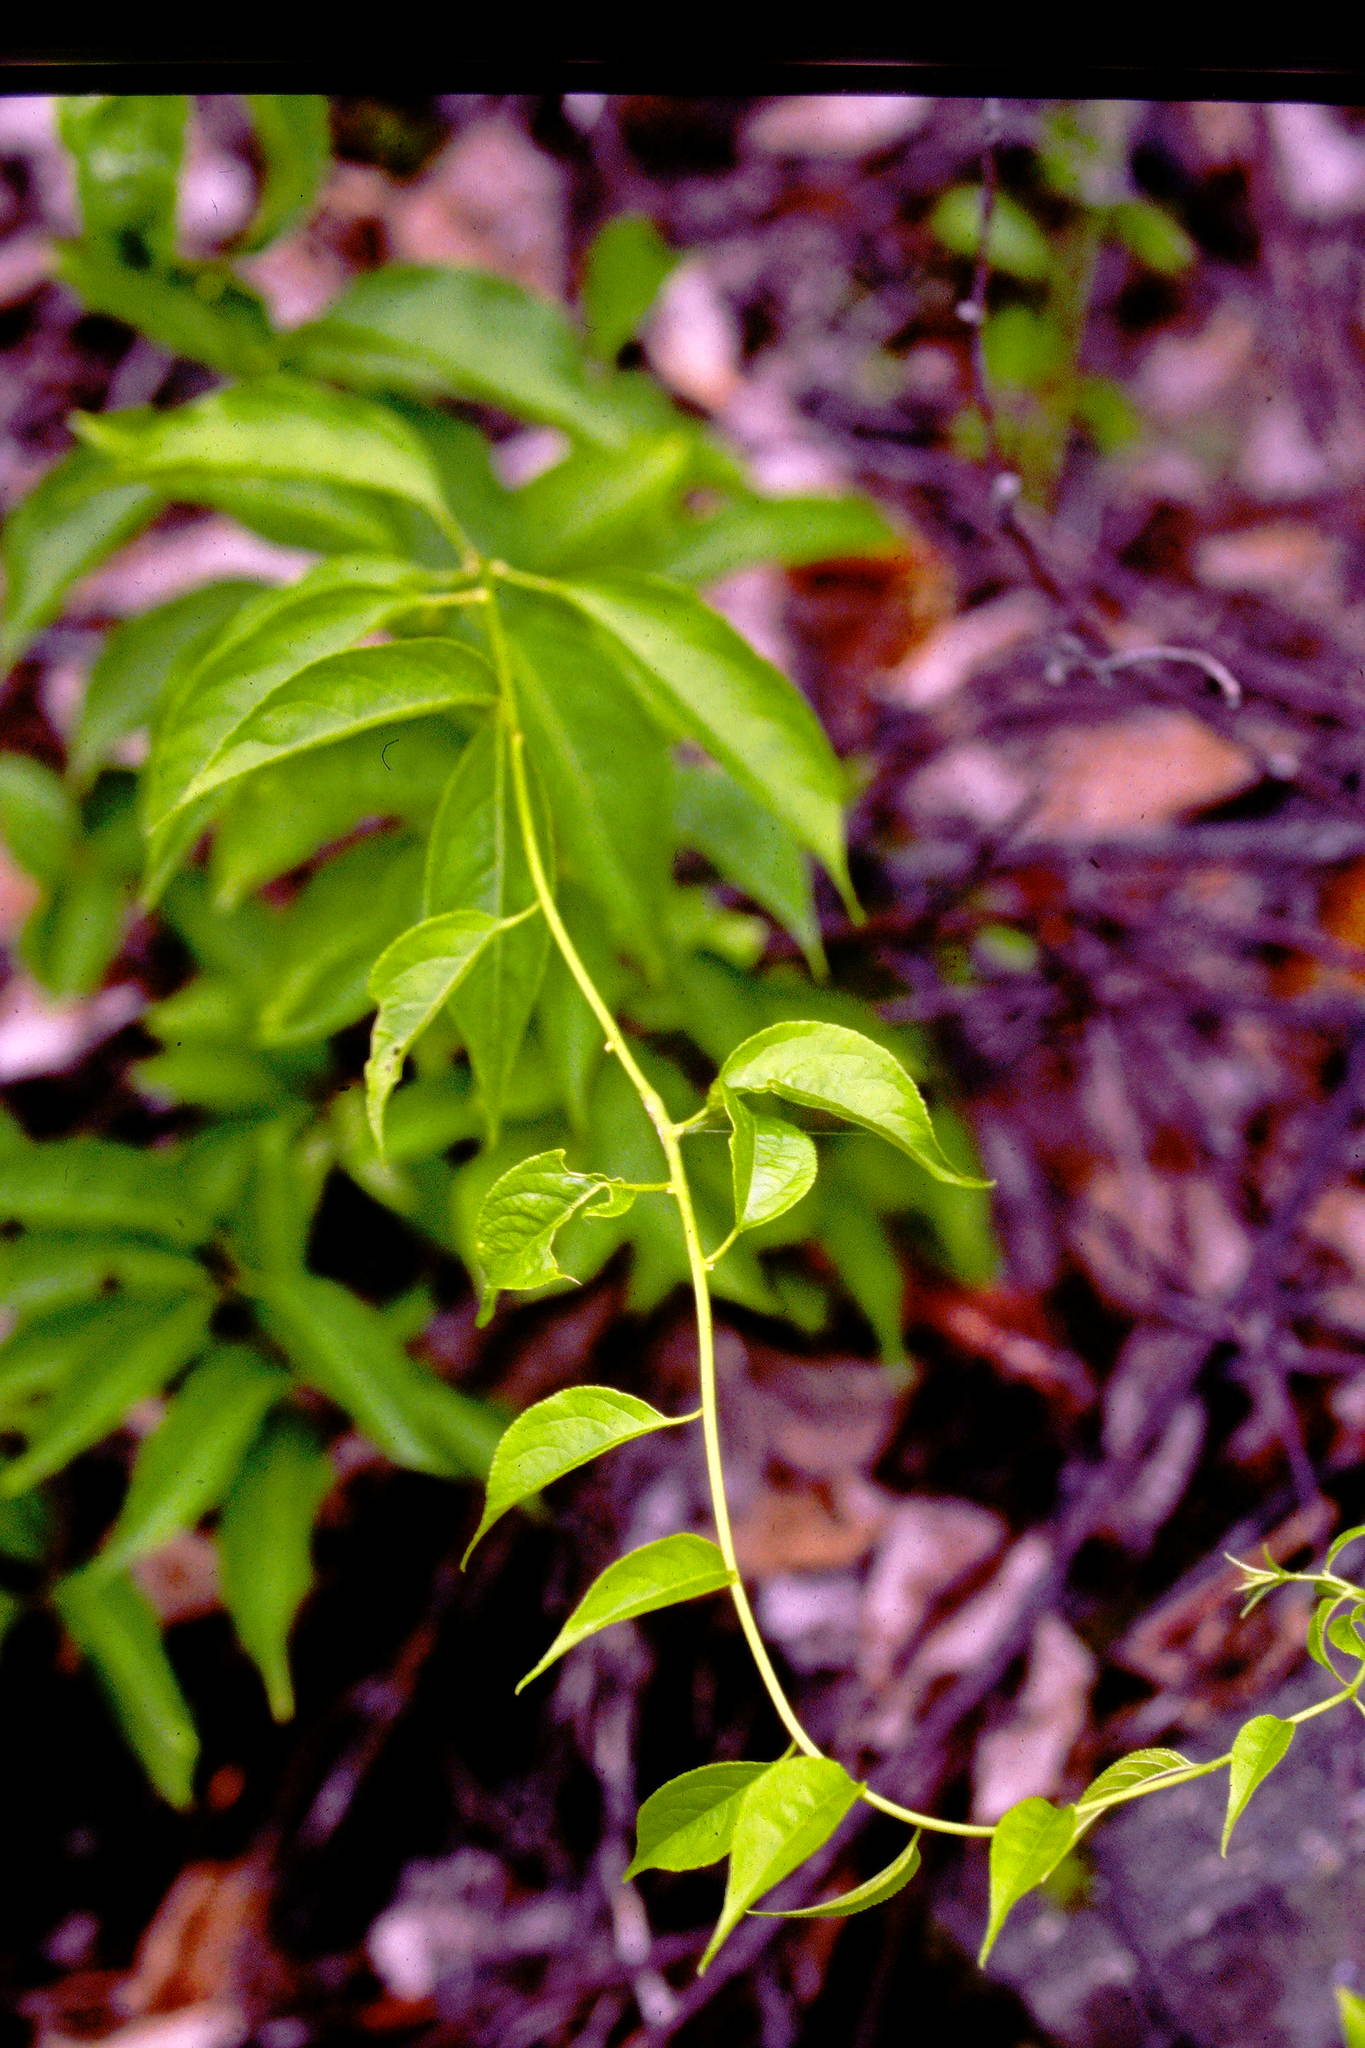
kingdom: Plantae
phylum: Tracheophyta
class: Magnoliopsida
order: Celastrales
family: Celastraceae
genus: Celastrus
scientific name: Celastrus scandens
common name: American bittersweet
